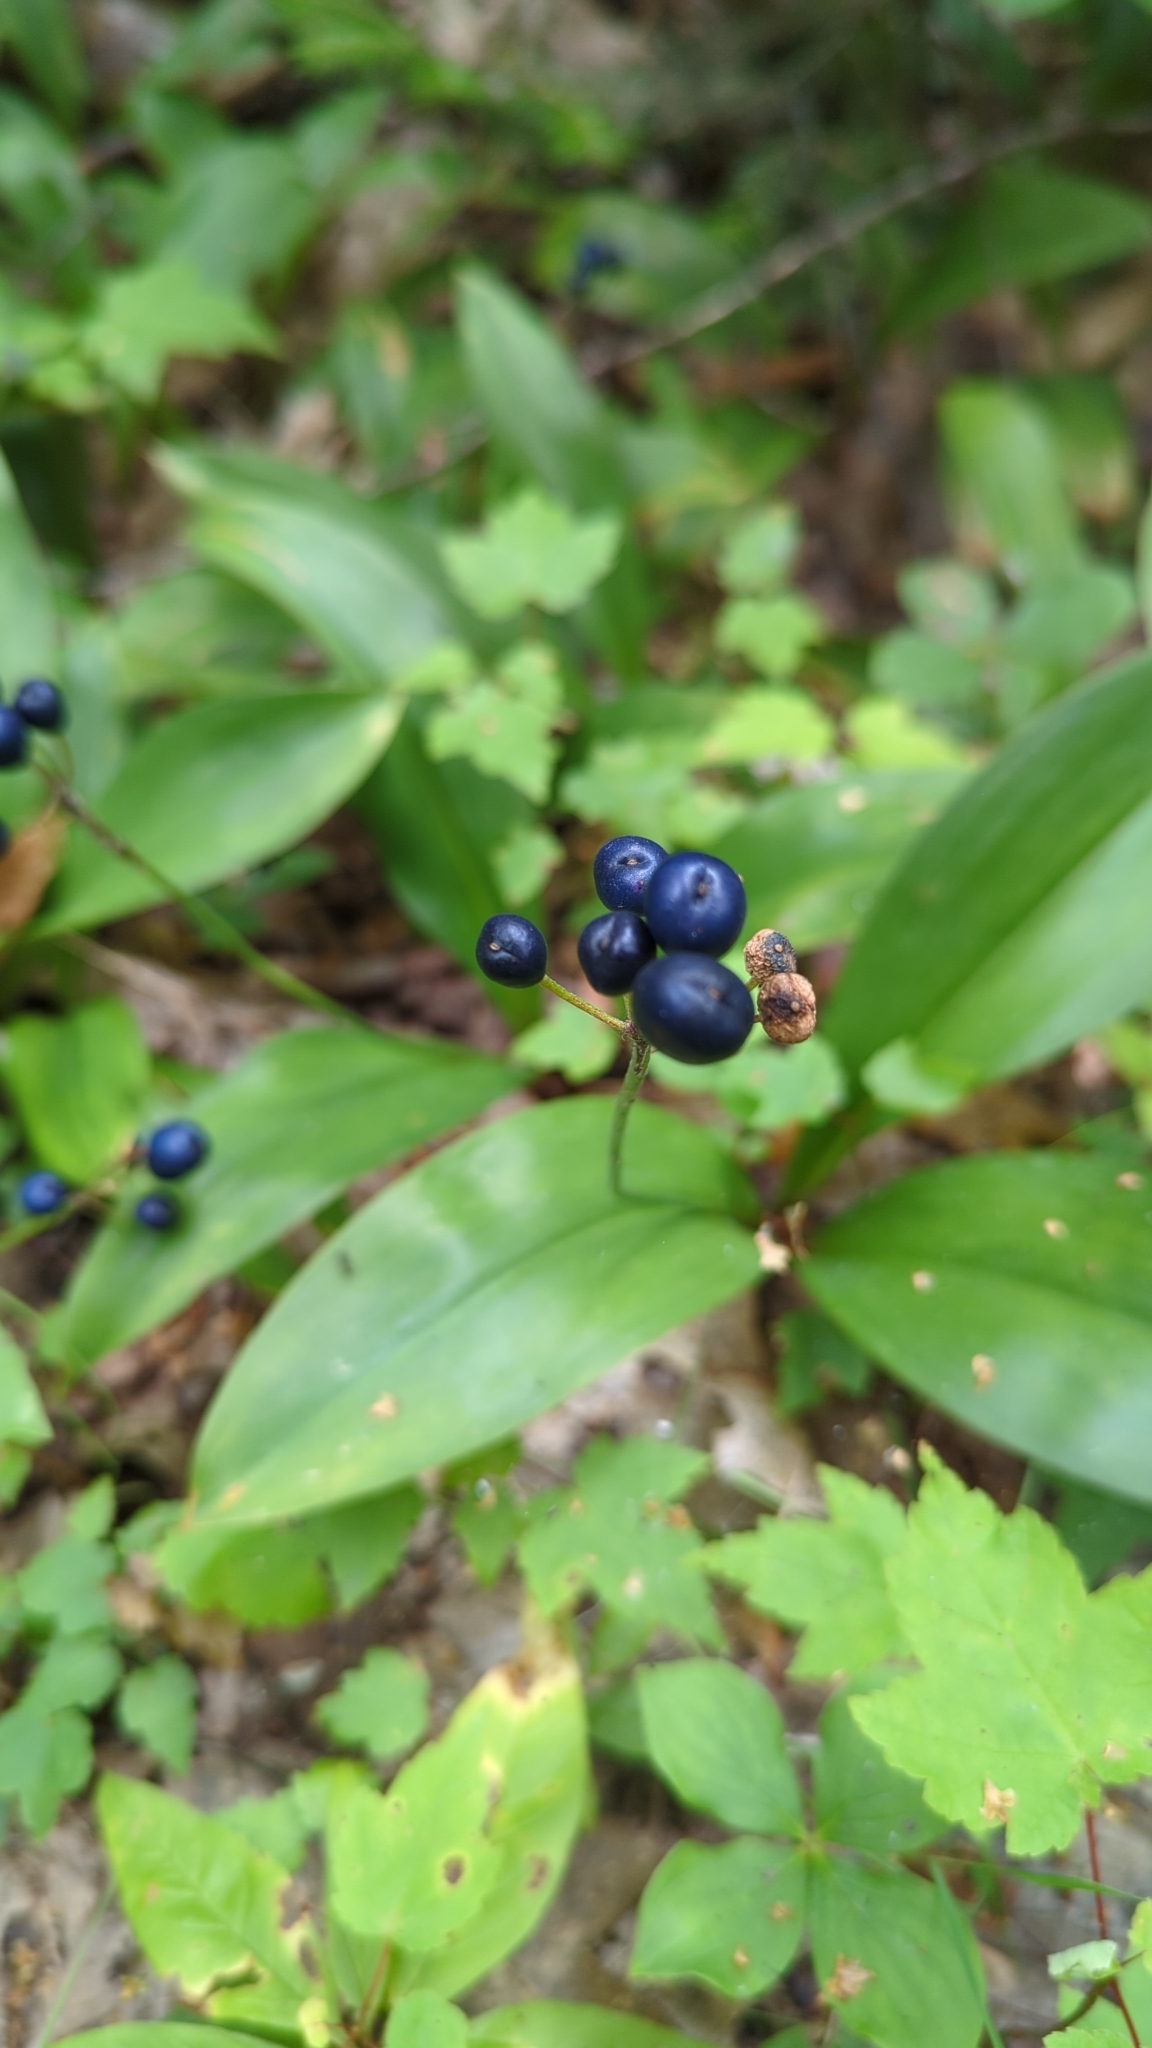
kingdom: Plantae
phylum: Tracheophyta
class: Liliopsida
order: Liliales
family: Liliaceae
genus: Clintonia
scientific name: Clintonia borealis
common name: Yellow clintonia
